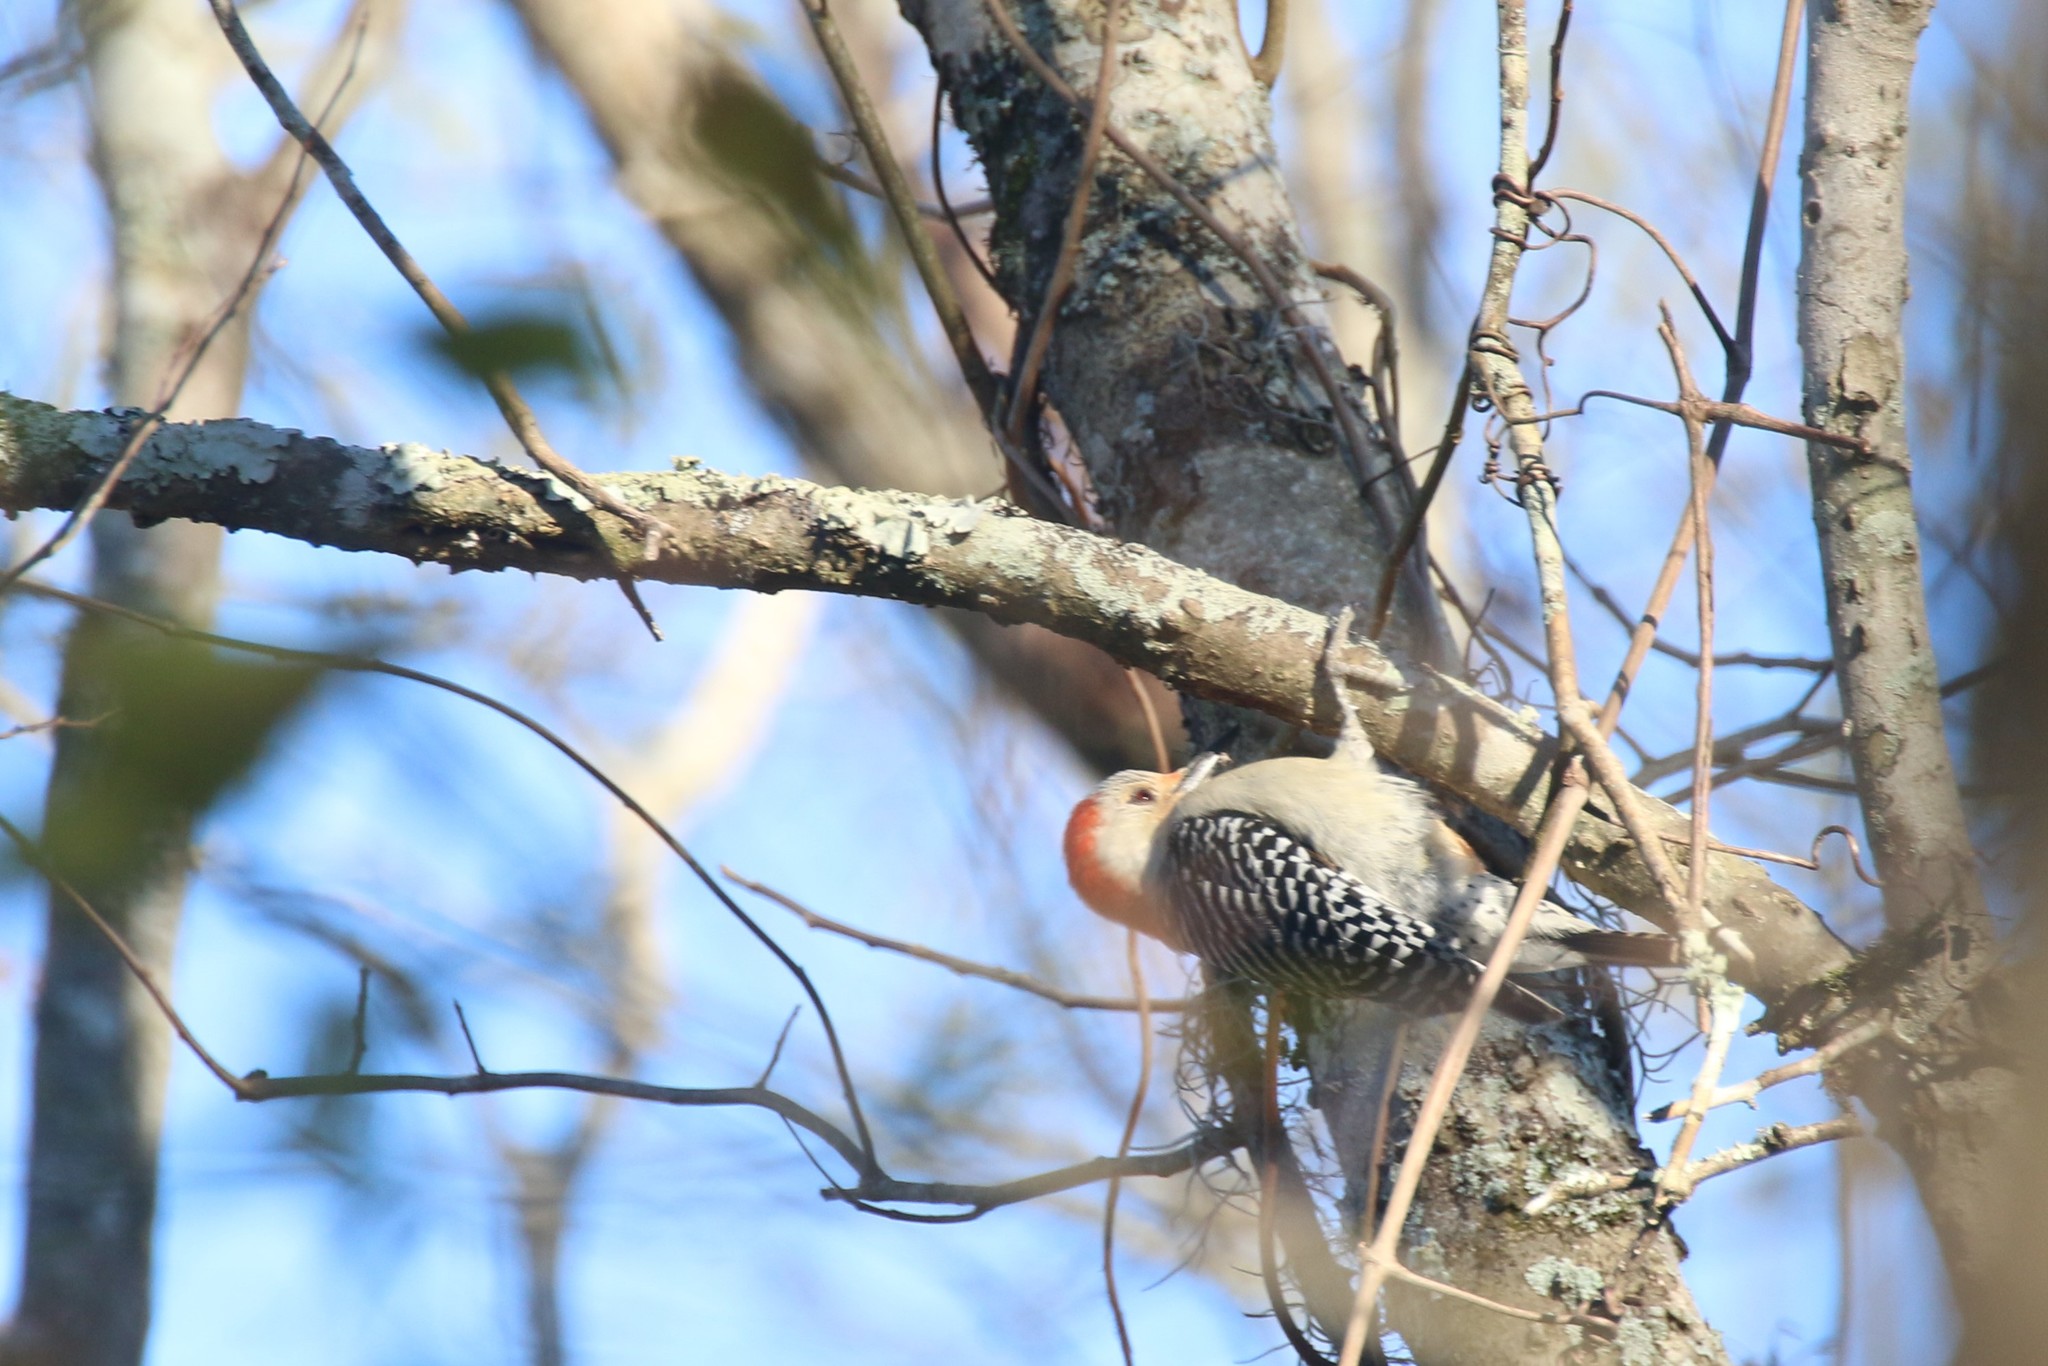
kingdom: Animalia
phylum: Chordata
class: Aves
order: Piciformes
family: Picidae
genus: Melanerpes
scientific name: Melanerpes carolinus
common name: Red-bellied woodpecker
